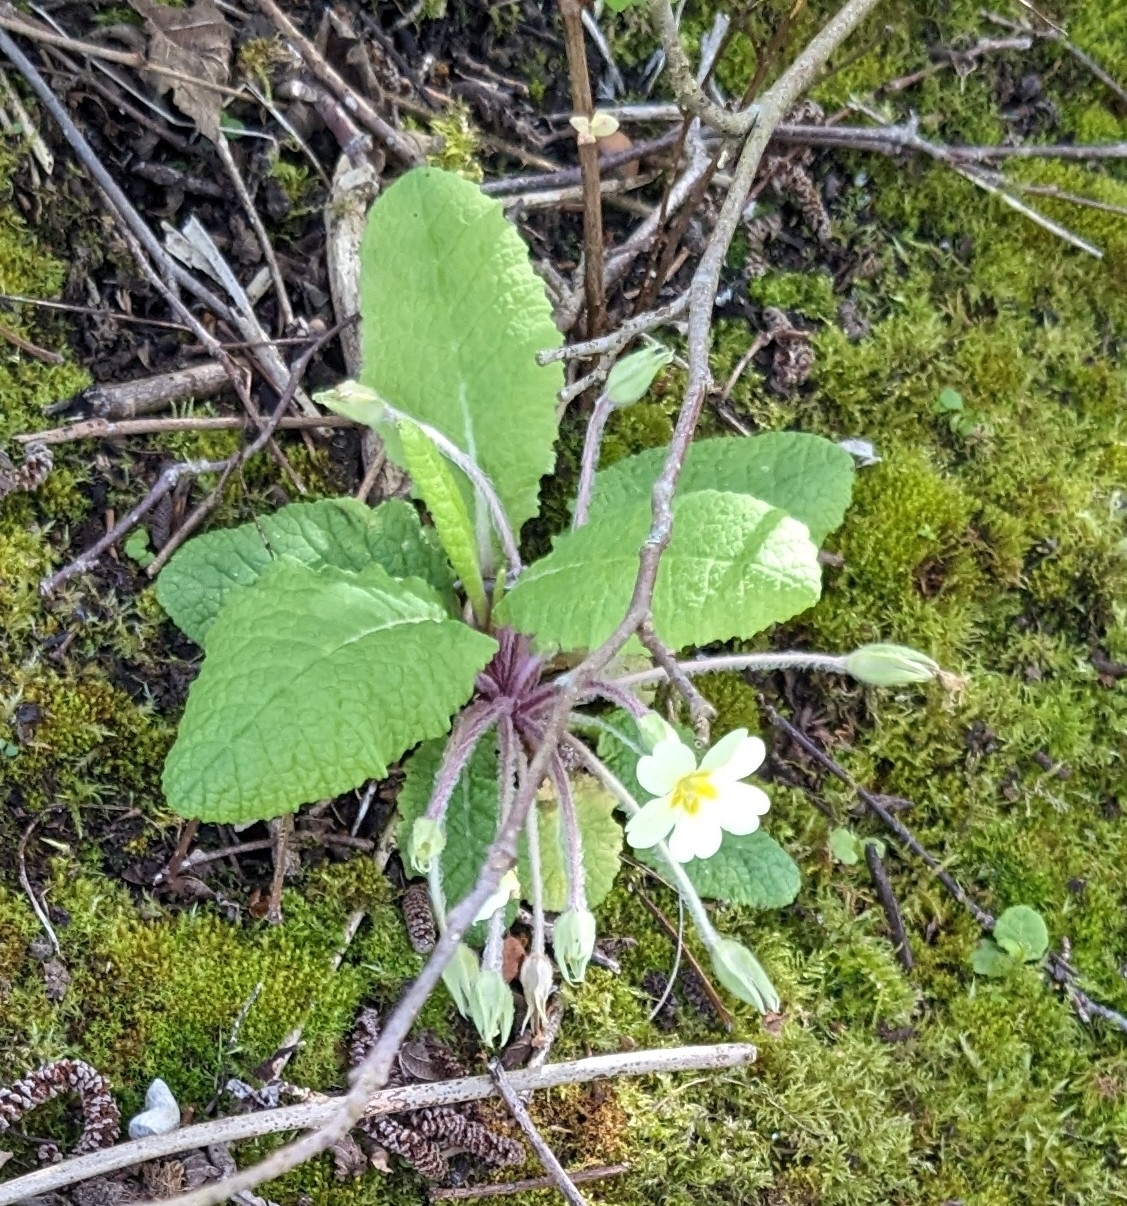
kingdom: Plantae
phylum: Tracheophyta
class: Magnoliopsida
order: Ericales
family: Primulaceae
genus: Primula
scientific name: Primula vulgaris
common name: Primrose
